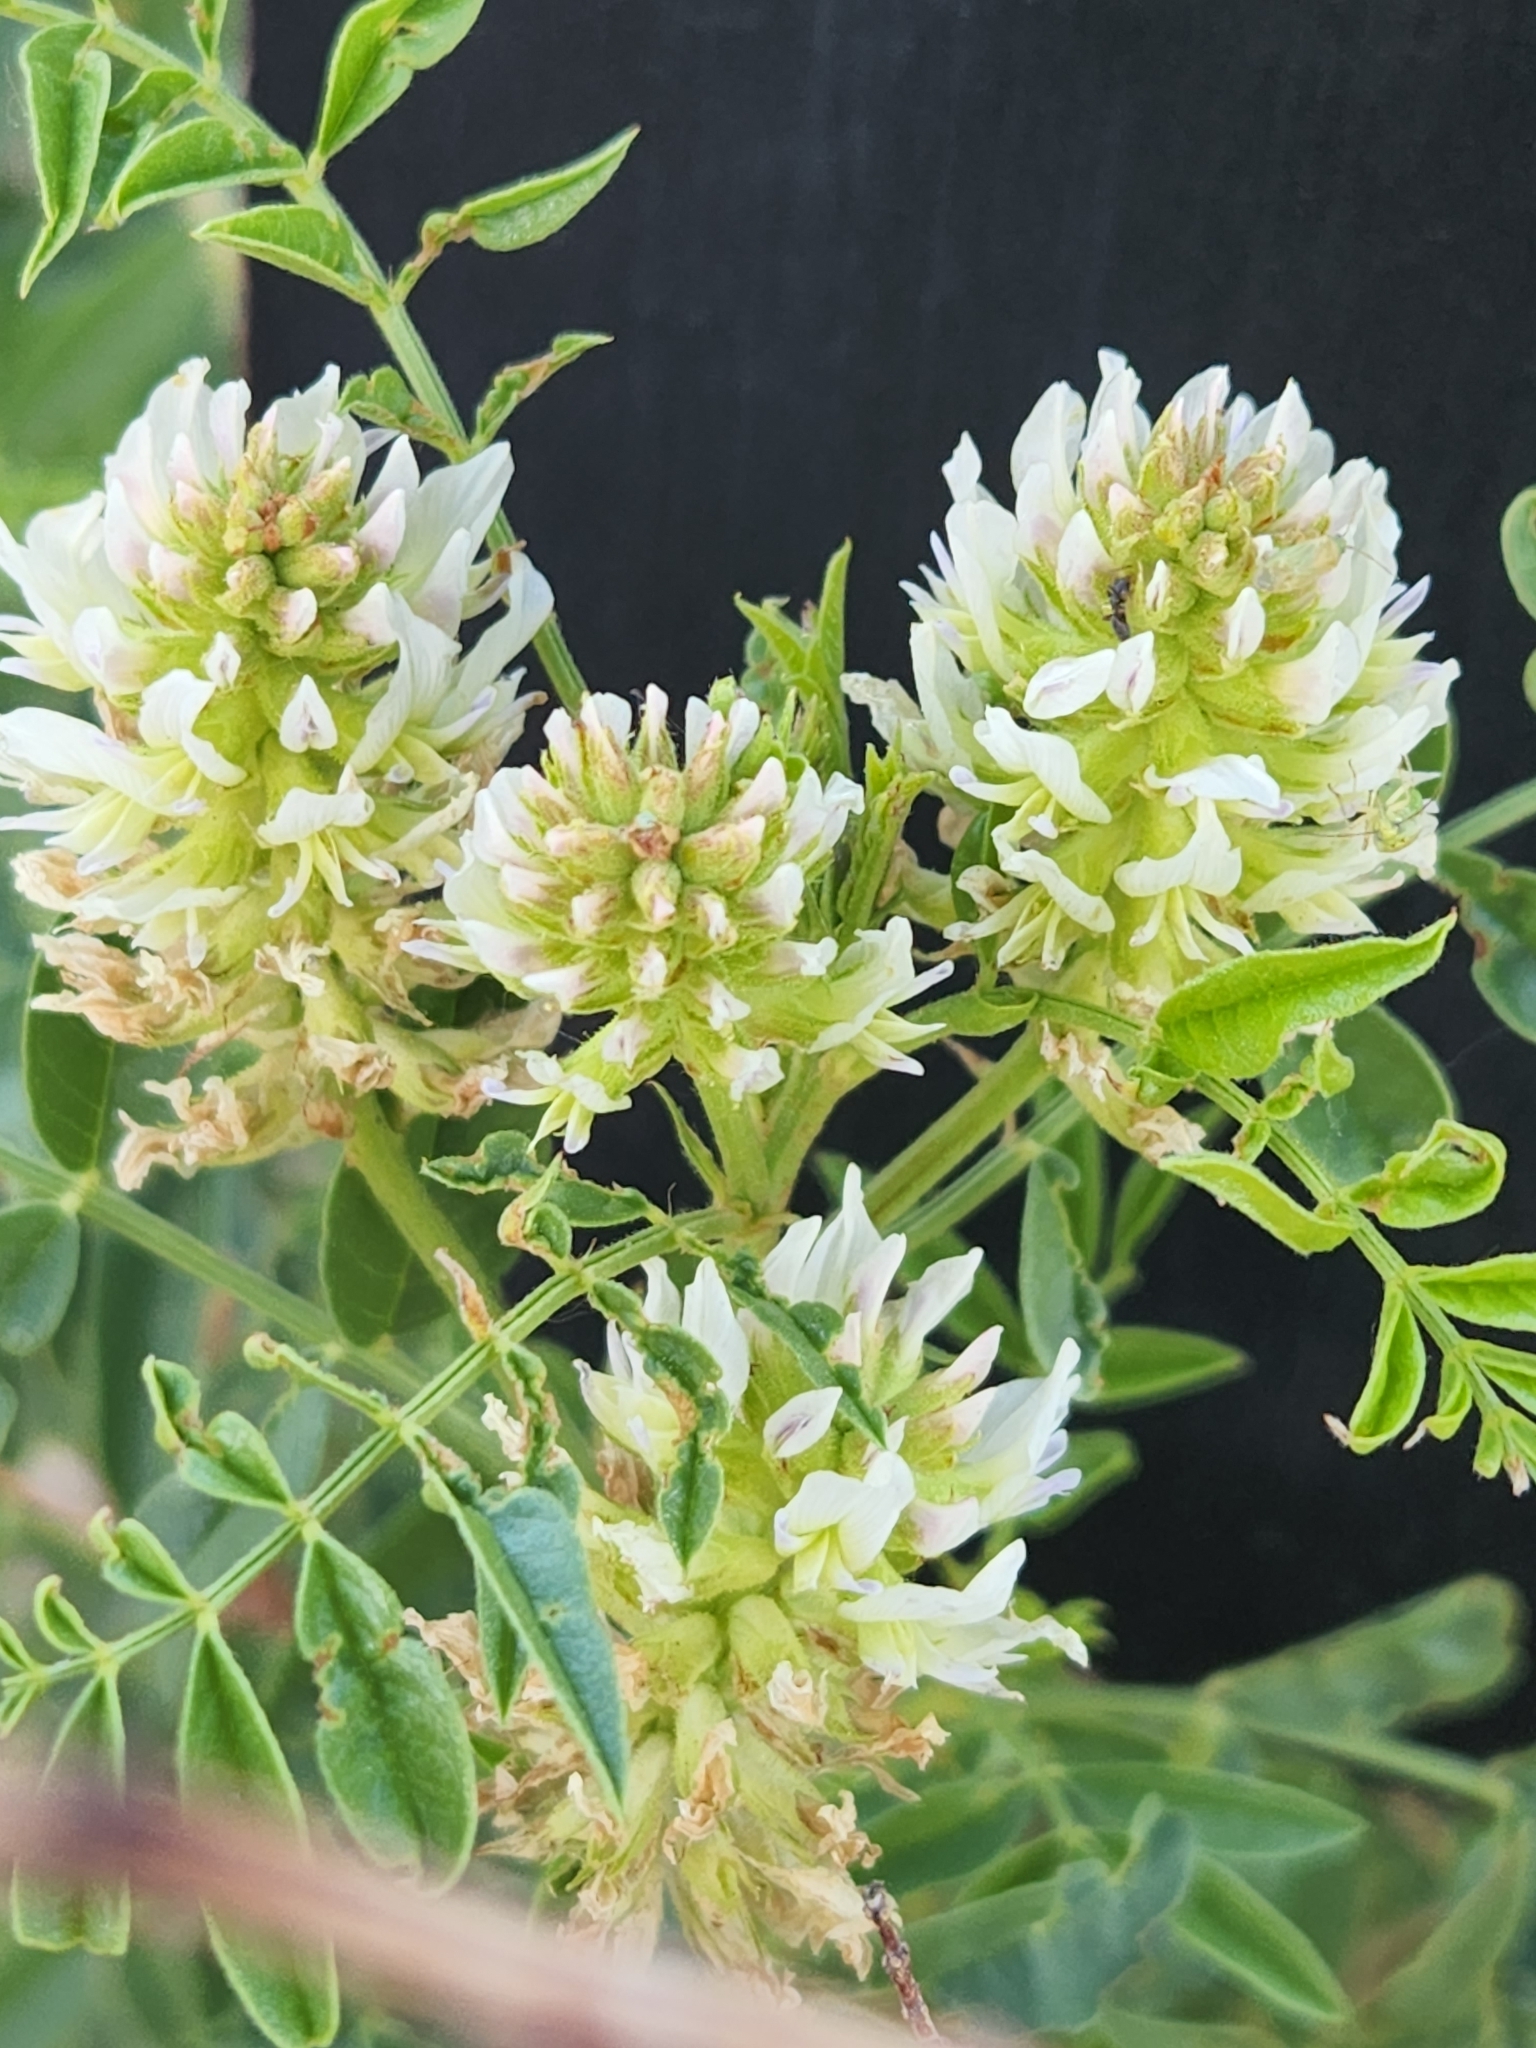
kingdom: Plantae
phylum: Tracheophyta
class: Magnoliopsida
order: Fabales
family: Fabaceae
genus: Glycyrrhiza
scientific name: Glycyrrhiza lepidota
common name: American liquorice
